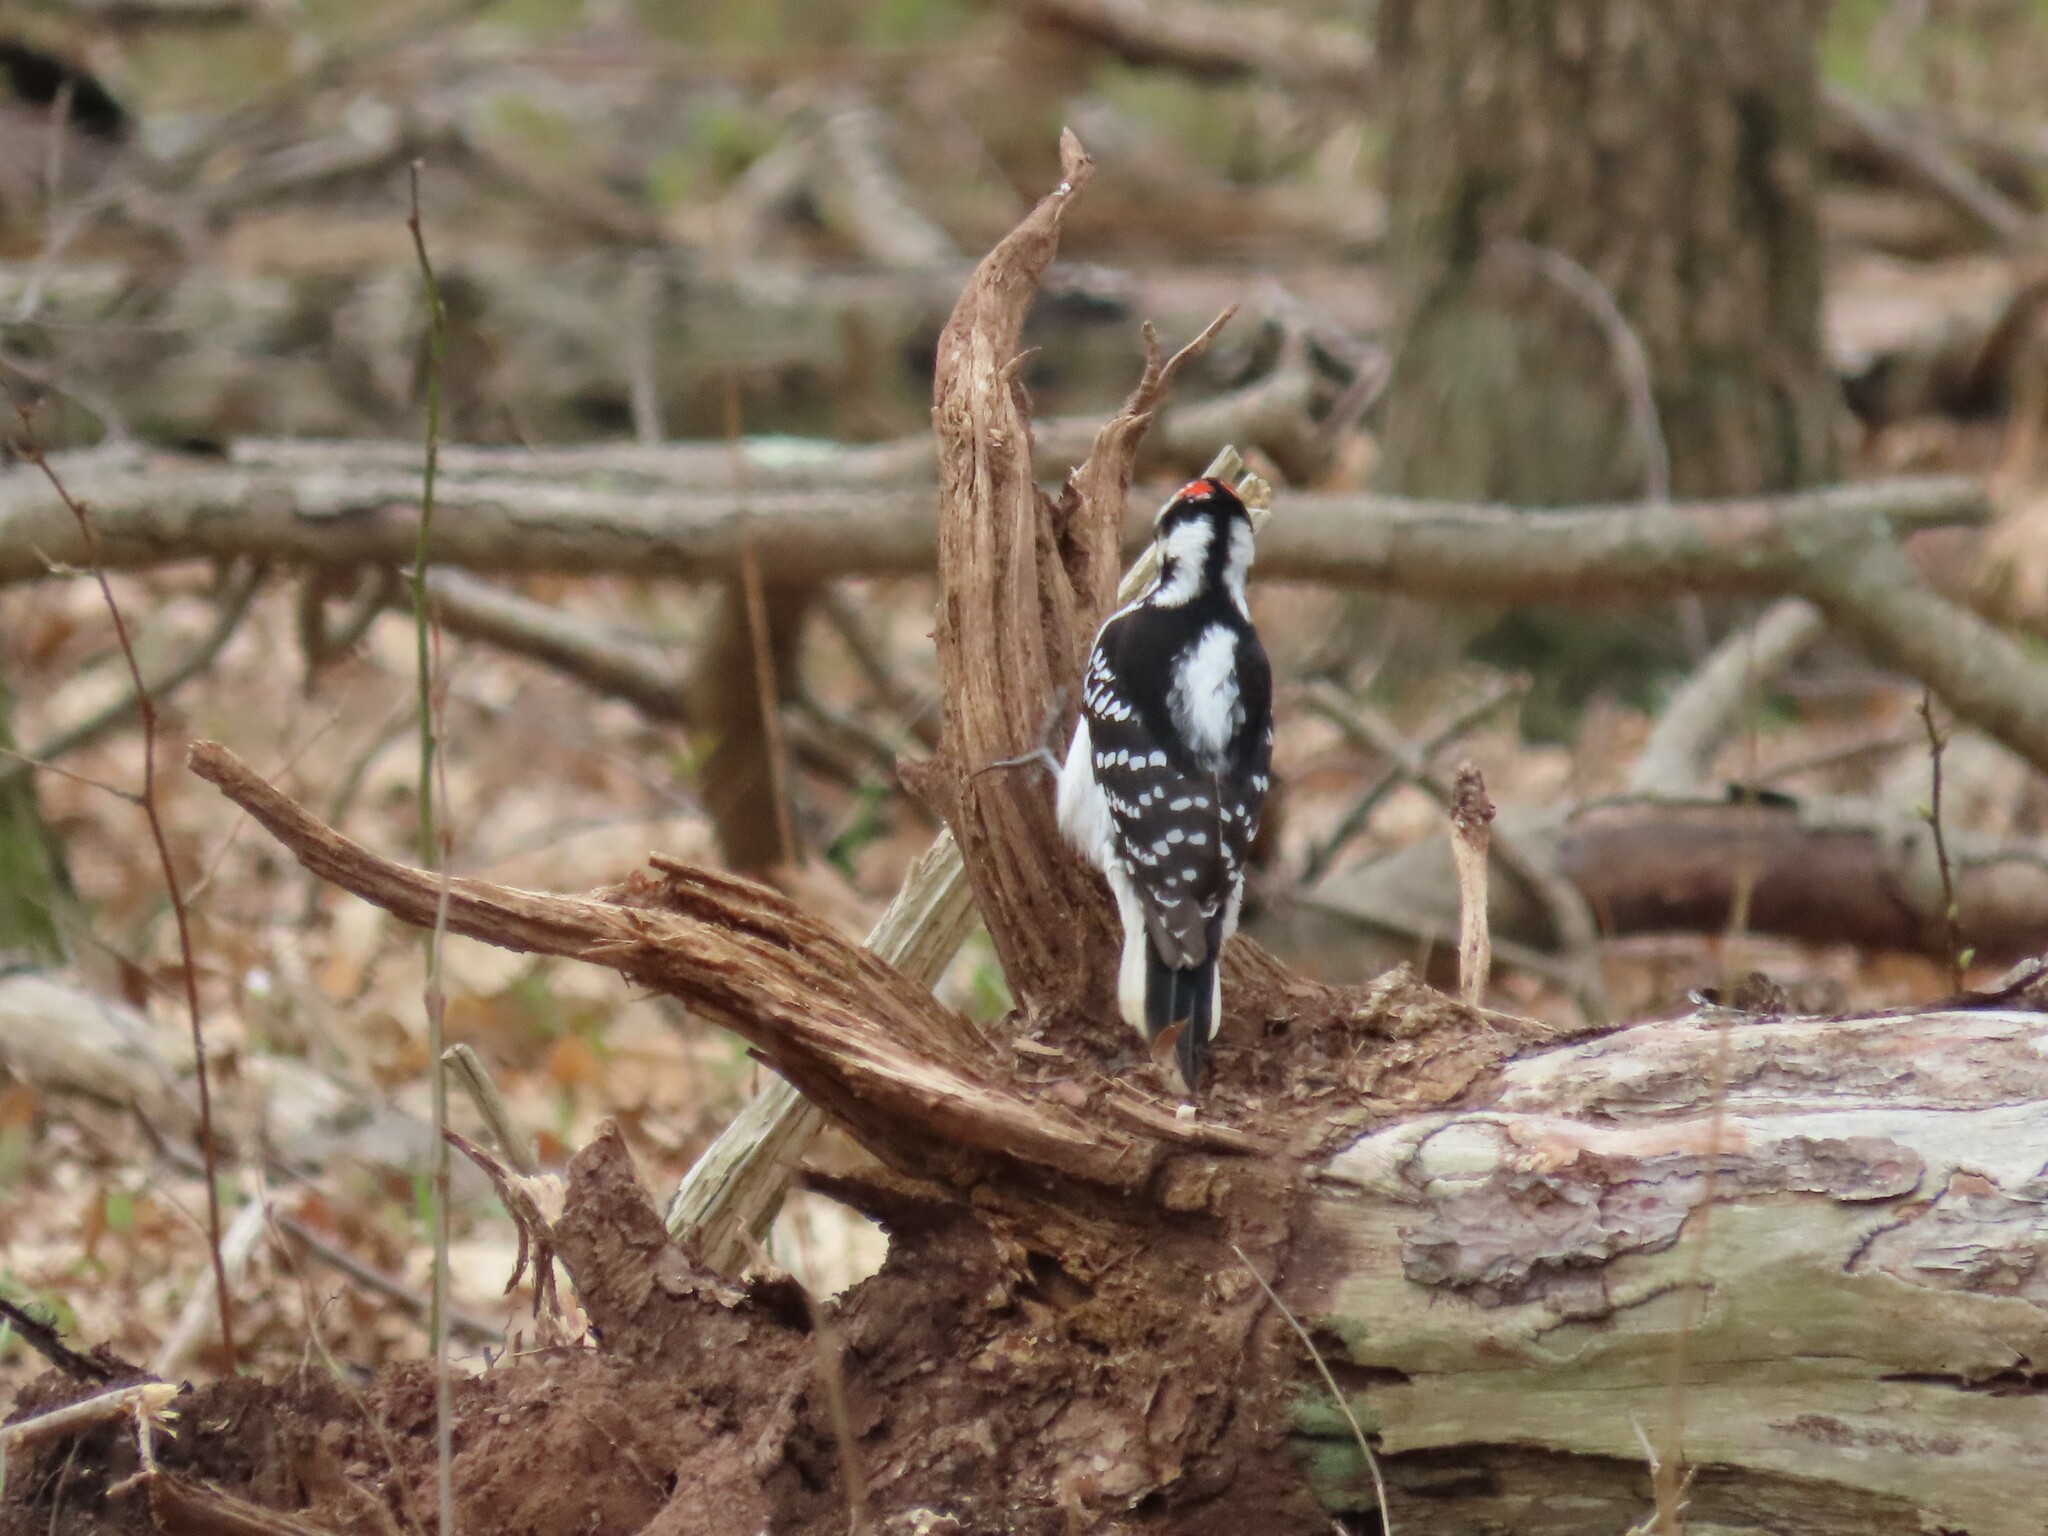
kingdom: Animalia
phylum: Chordata
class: Aves
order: Piciformes
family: Picidae
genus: Leuconotopicus
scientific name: Leuconotopicus villosus
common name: Hairy woodpecker
